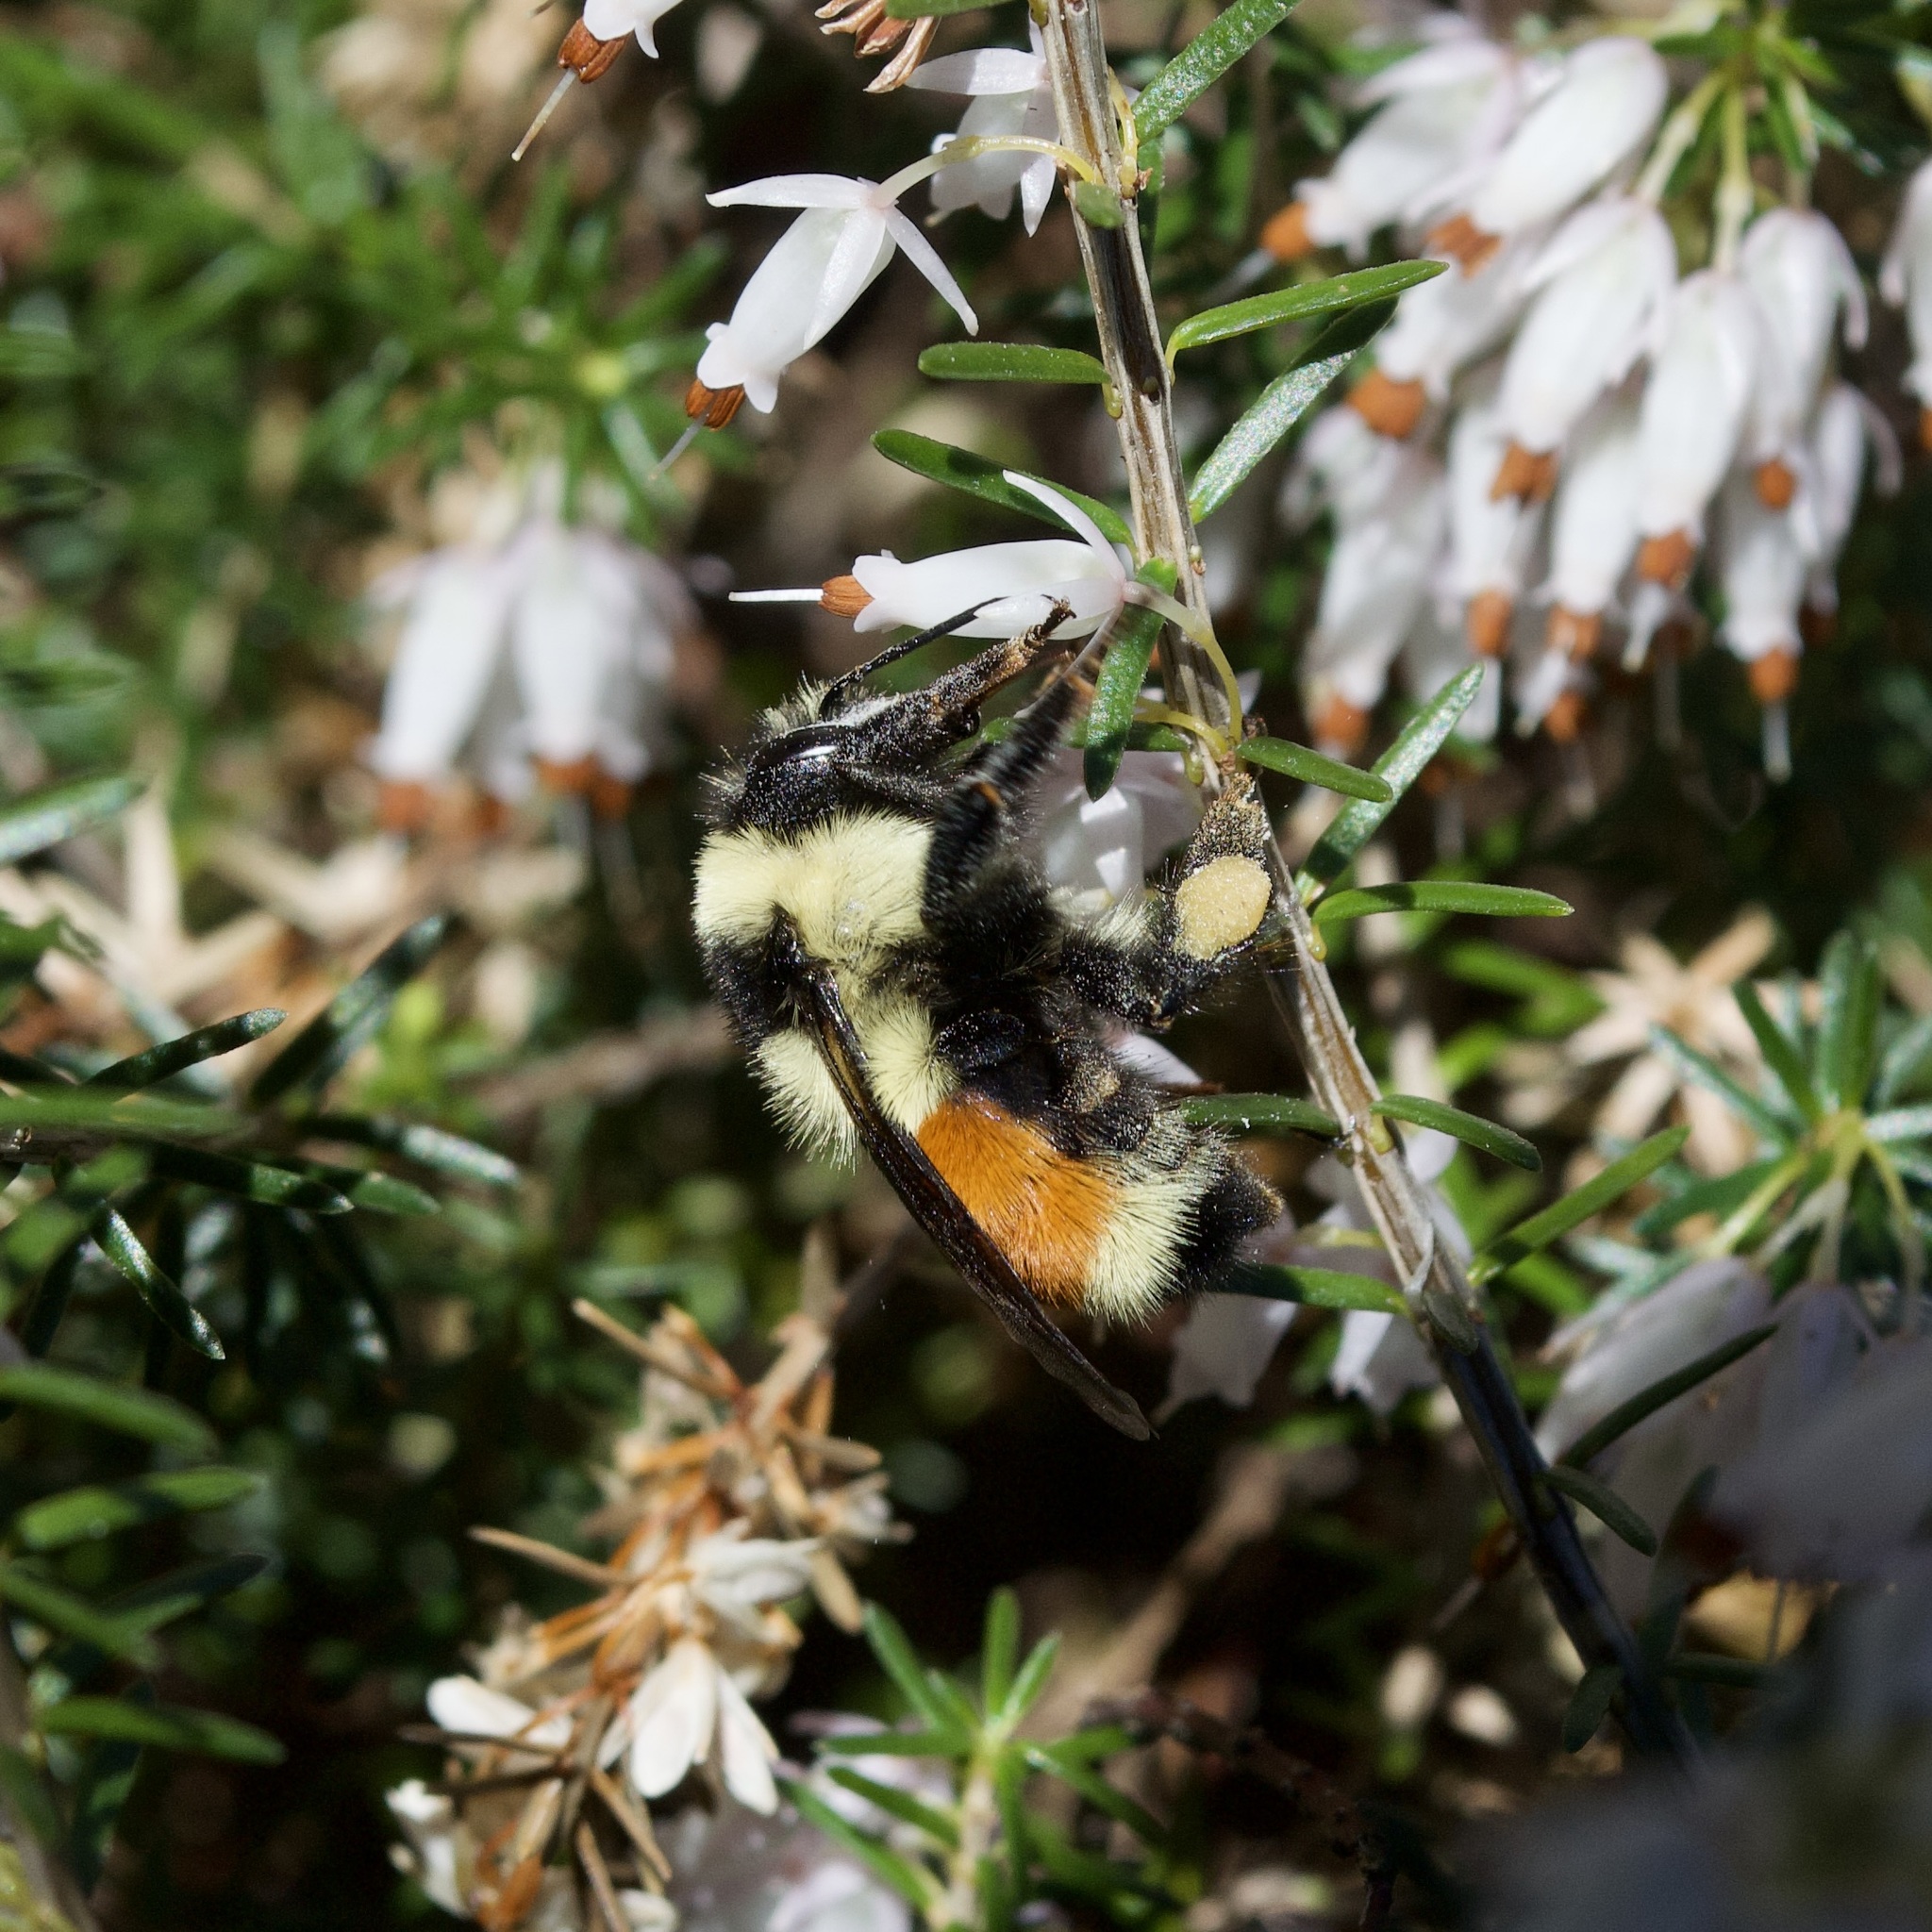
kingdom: Animalia
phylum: Arthropoda
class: Insecta
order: Hymenoptera
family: Apidae
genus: Bombus
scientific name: Bombus ternarius
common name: Tri-colored bumble bee
